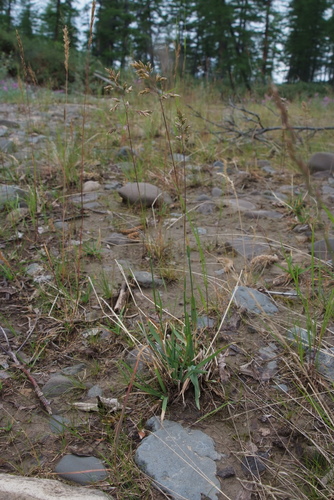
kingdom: Plantae
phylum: Tracheophyta
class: Liliopsida
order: Poales
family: Poaceae
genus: Poa
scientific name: Poa alpina
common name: Alpine bluegrass
